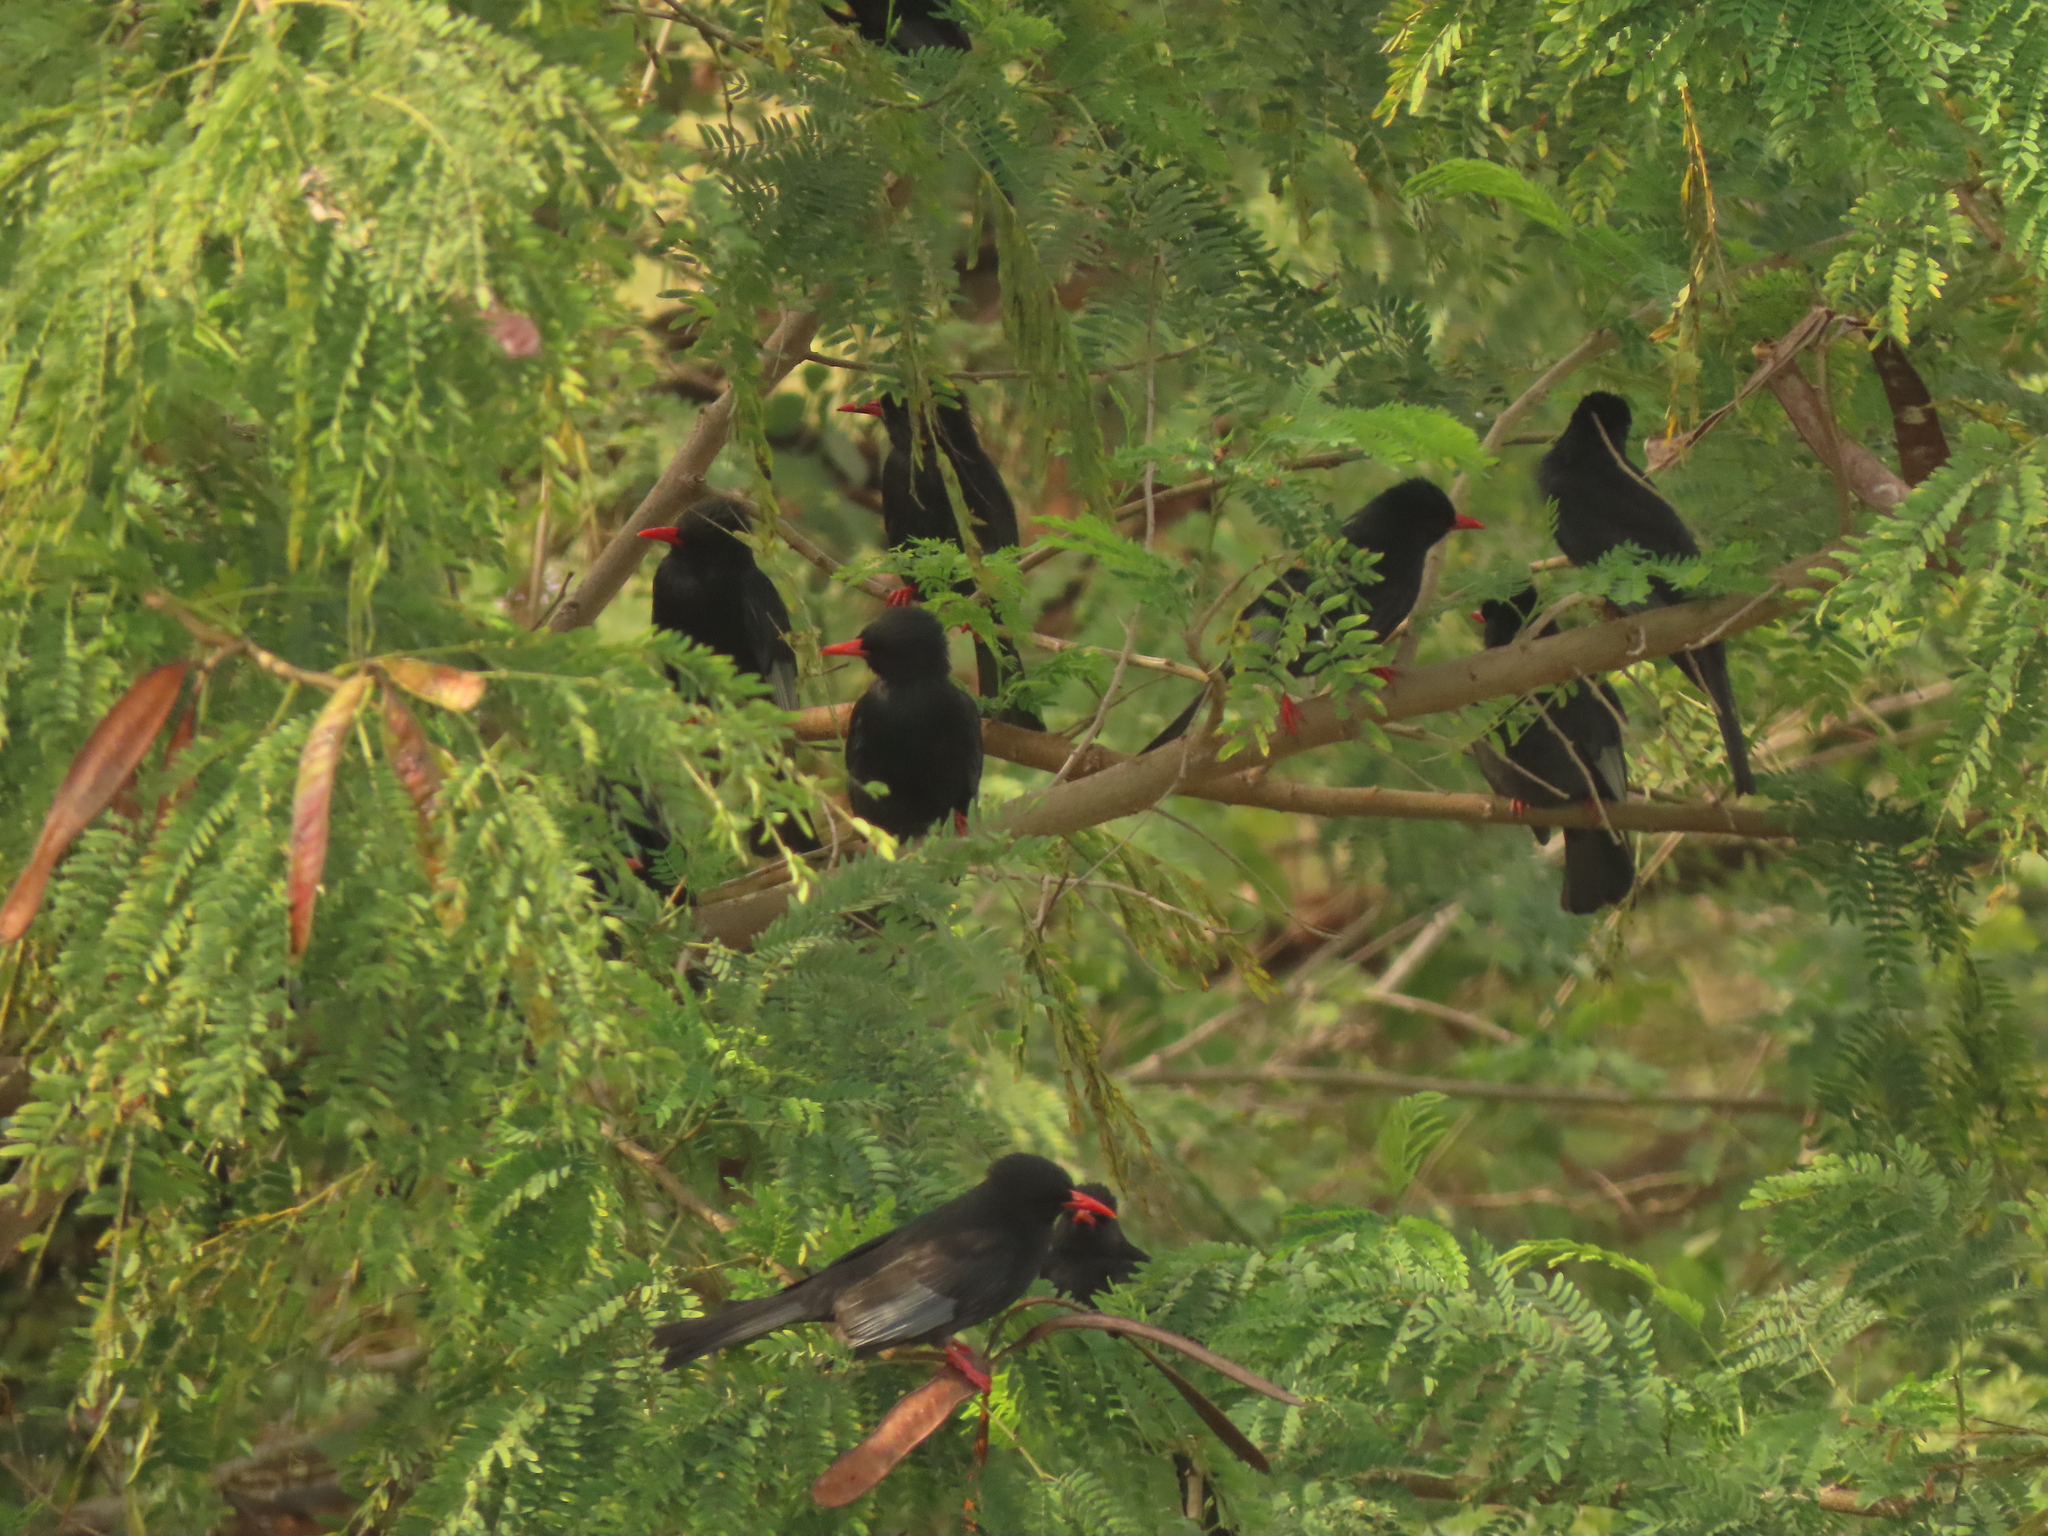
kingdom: Animalia
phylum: Chordata
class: Aves
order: Passeriformes
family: Pycnonotidae
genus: Hypsipetes
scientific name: Hypsipetes leucocephalus
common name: Black bulbul
